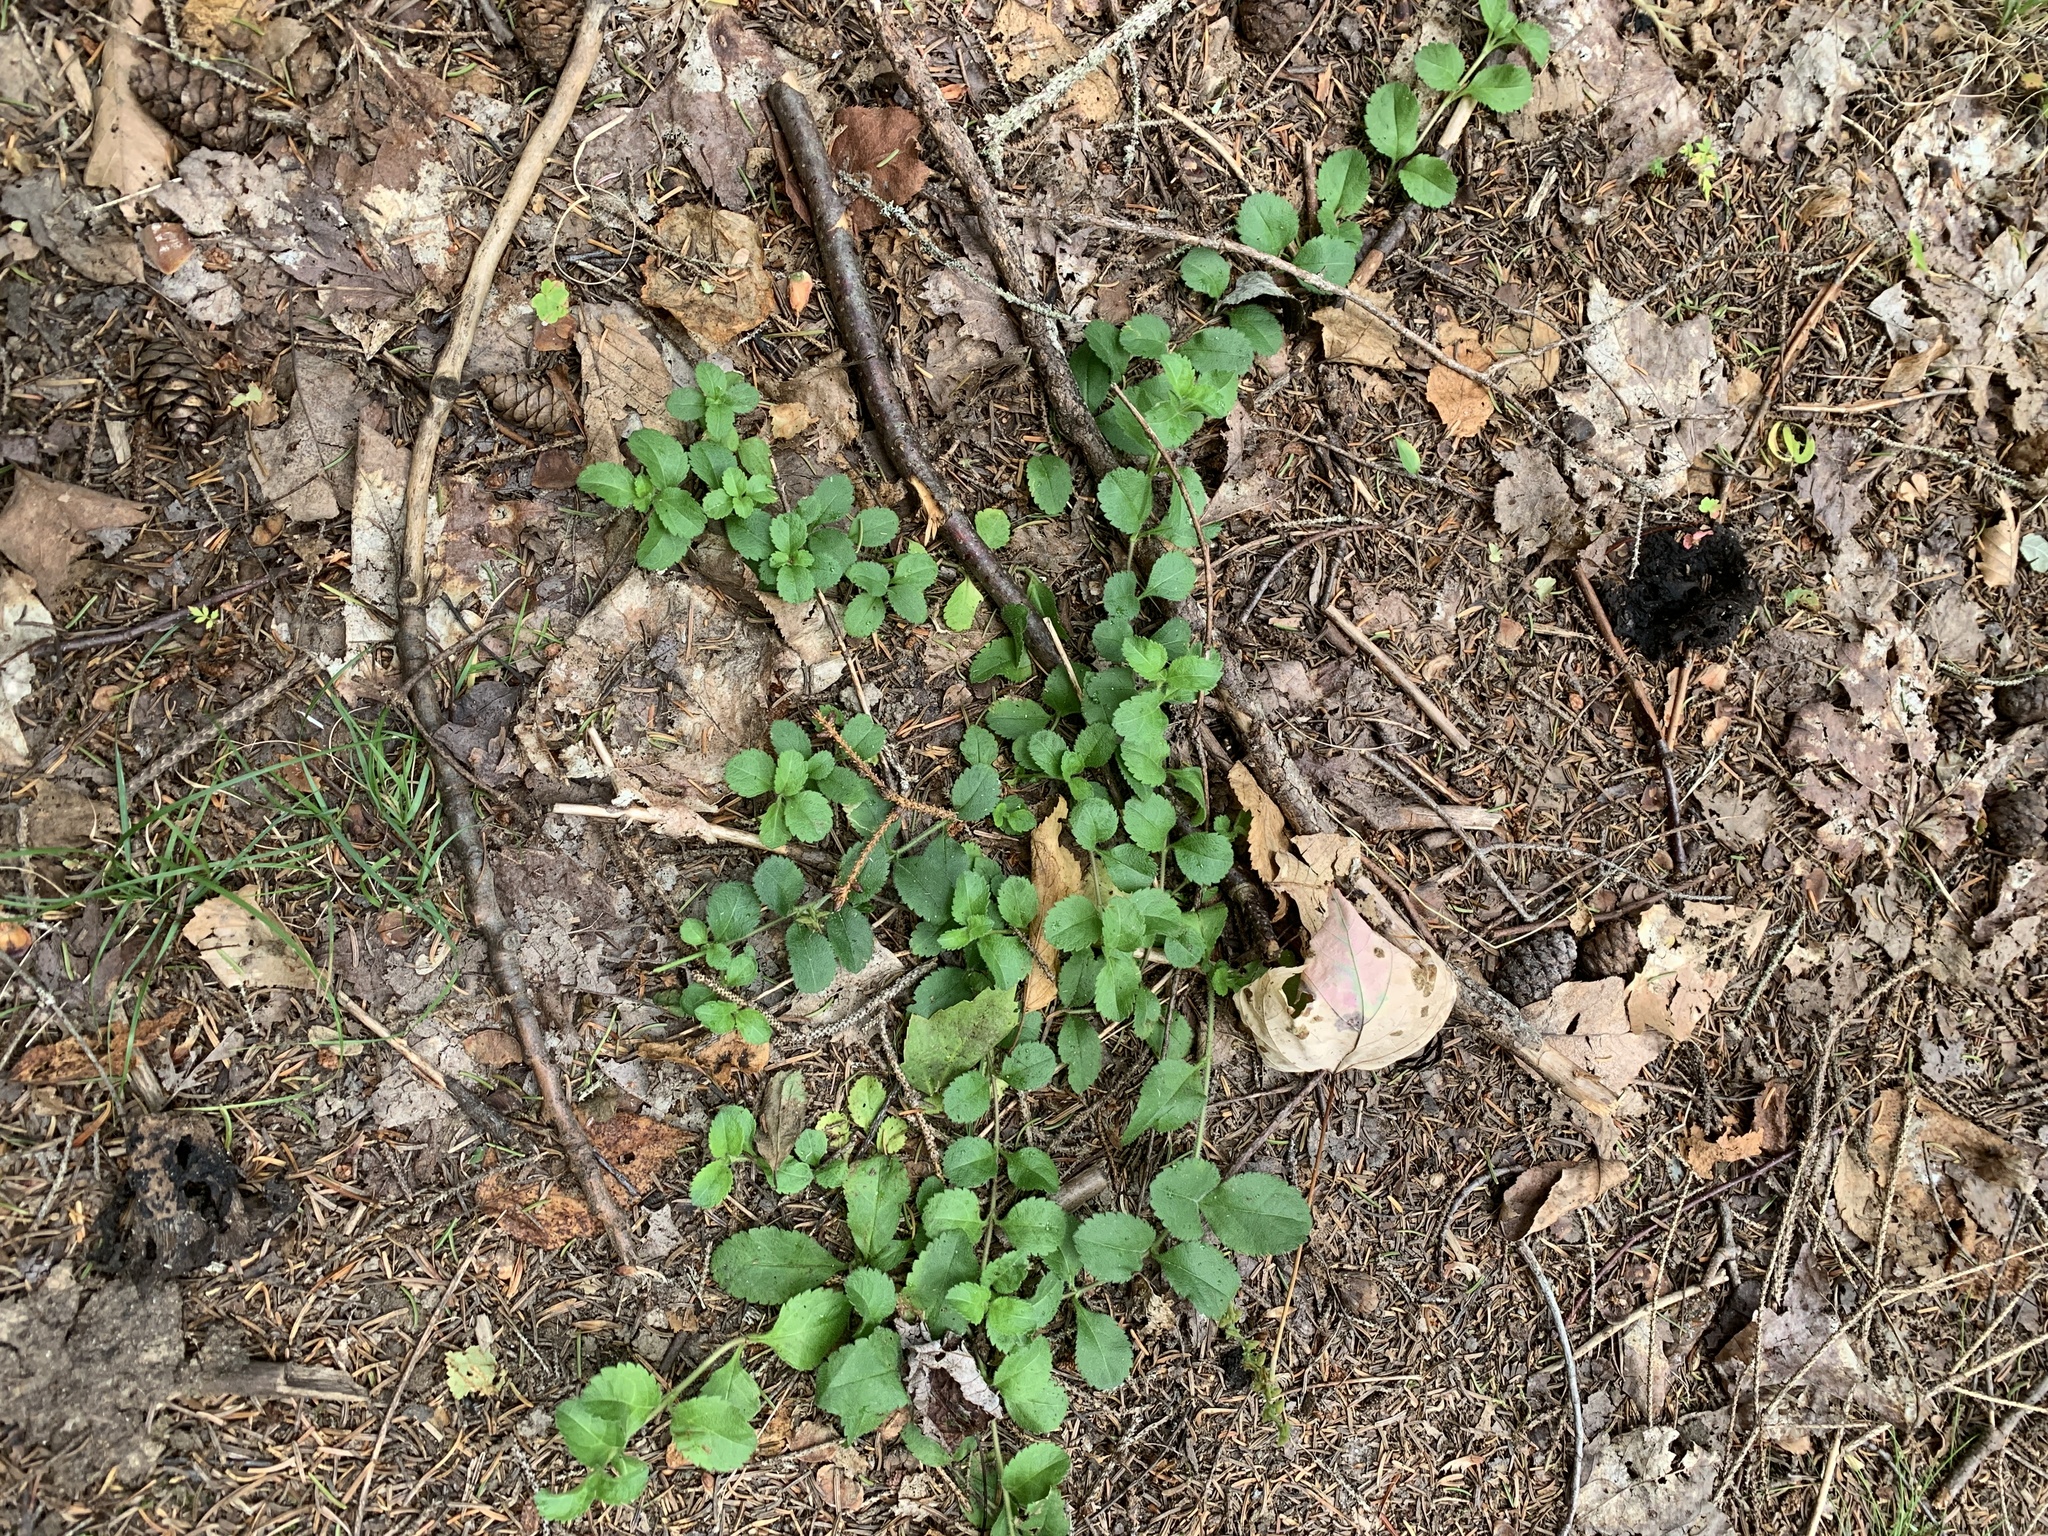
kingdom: Plantae
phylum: Tracheophyta
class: Magnoliopsida
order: Lamiales
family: Plantaginaceae
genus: Veronica
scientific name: Veronica officinalis
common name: Common speedwell
